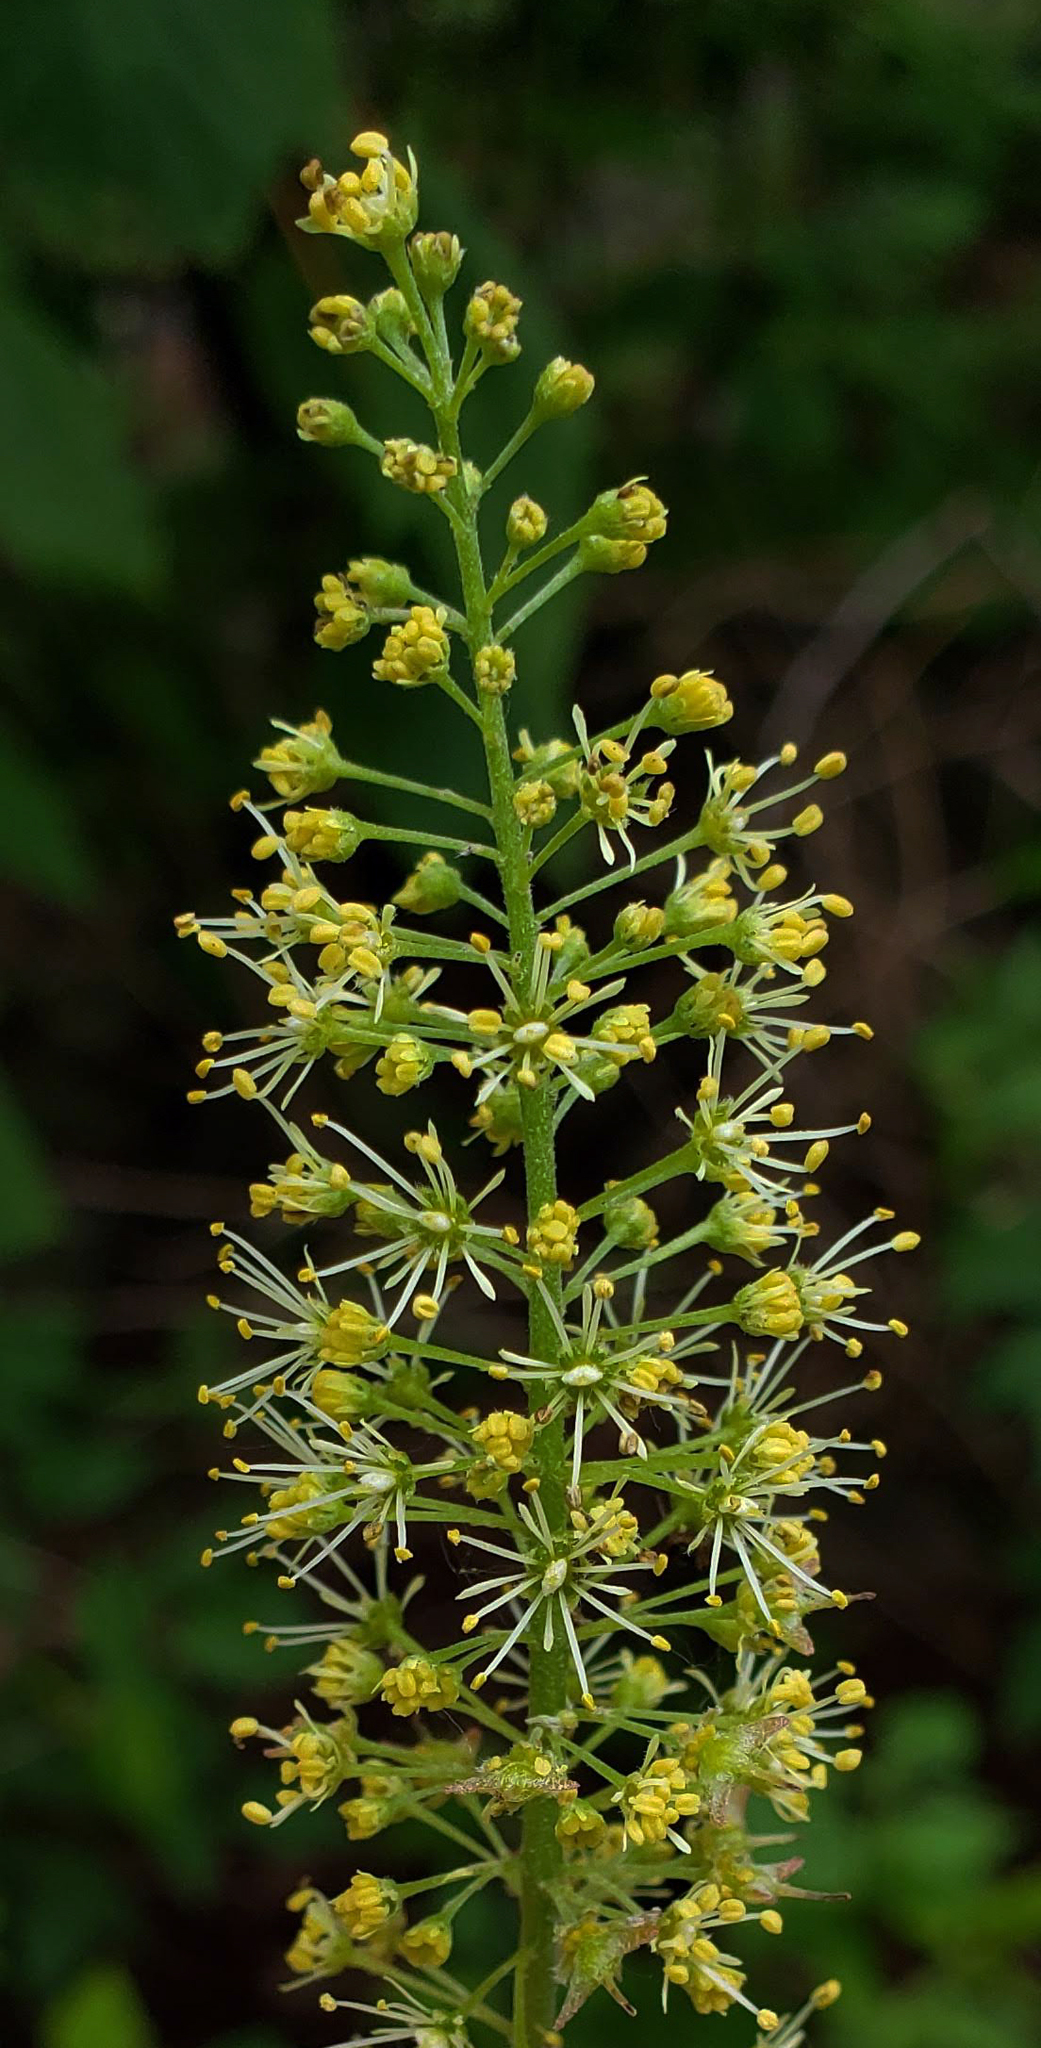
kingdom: Plantae
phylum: Tracheophyta
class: Magnoliopsida
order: Sapindales
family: Sapindaceae
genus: Acer
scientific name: Acer spicatum
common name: Mountain maple
